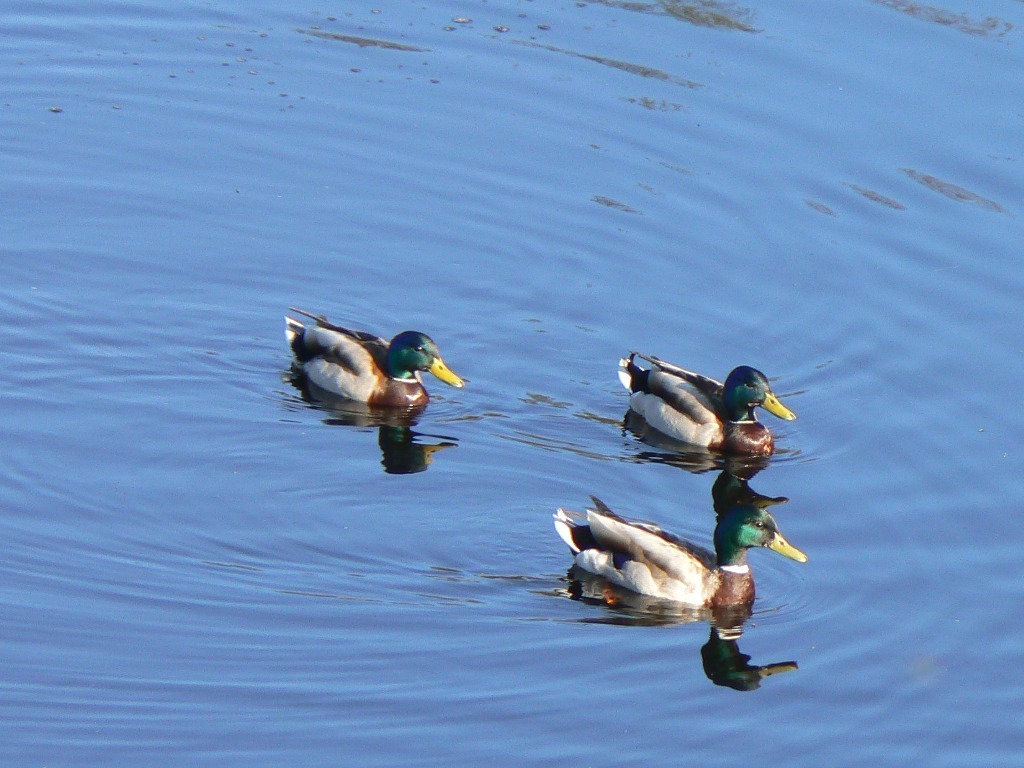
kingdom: Animalia
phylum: Chordata
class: Aves
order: Anseriformes
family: Anatidae
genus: Anas
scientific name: Anas platyrhynchos
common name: Mallard
